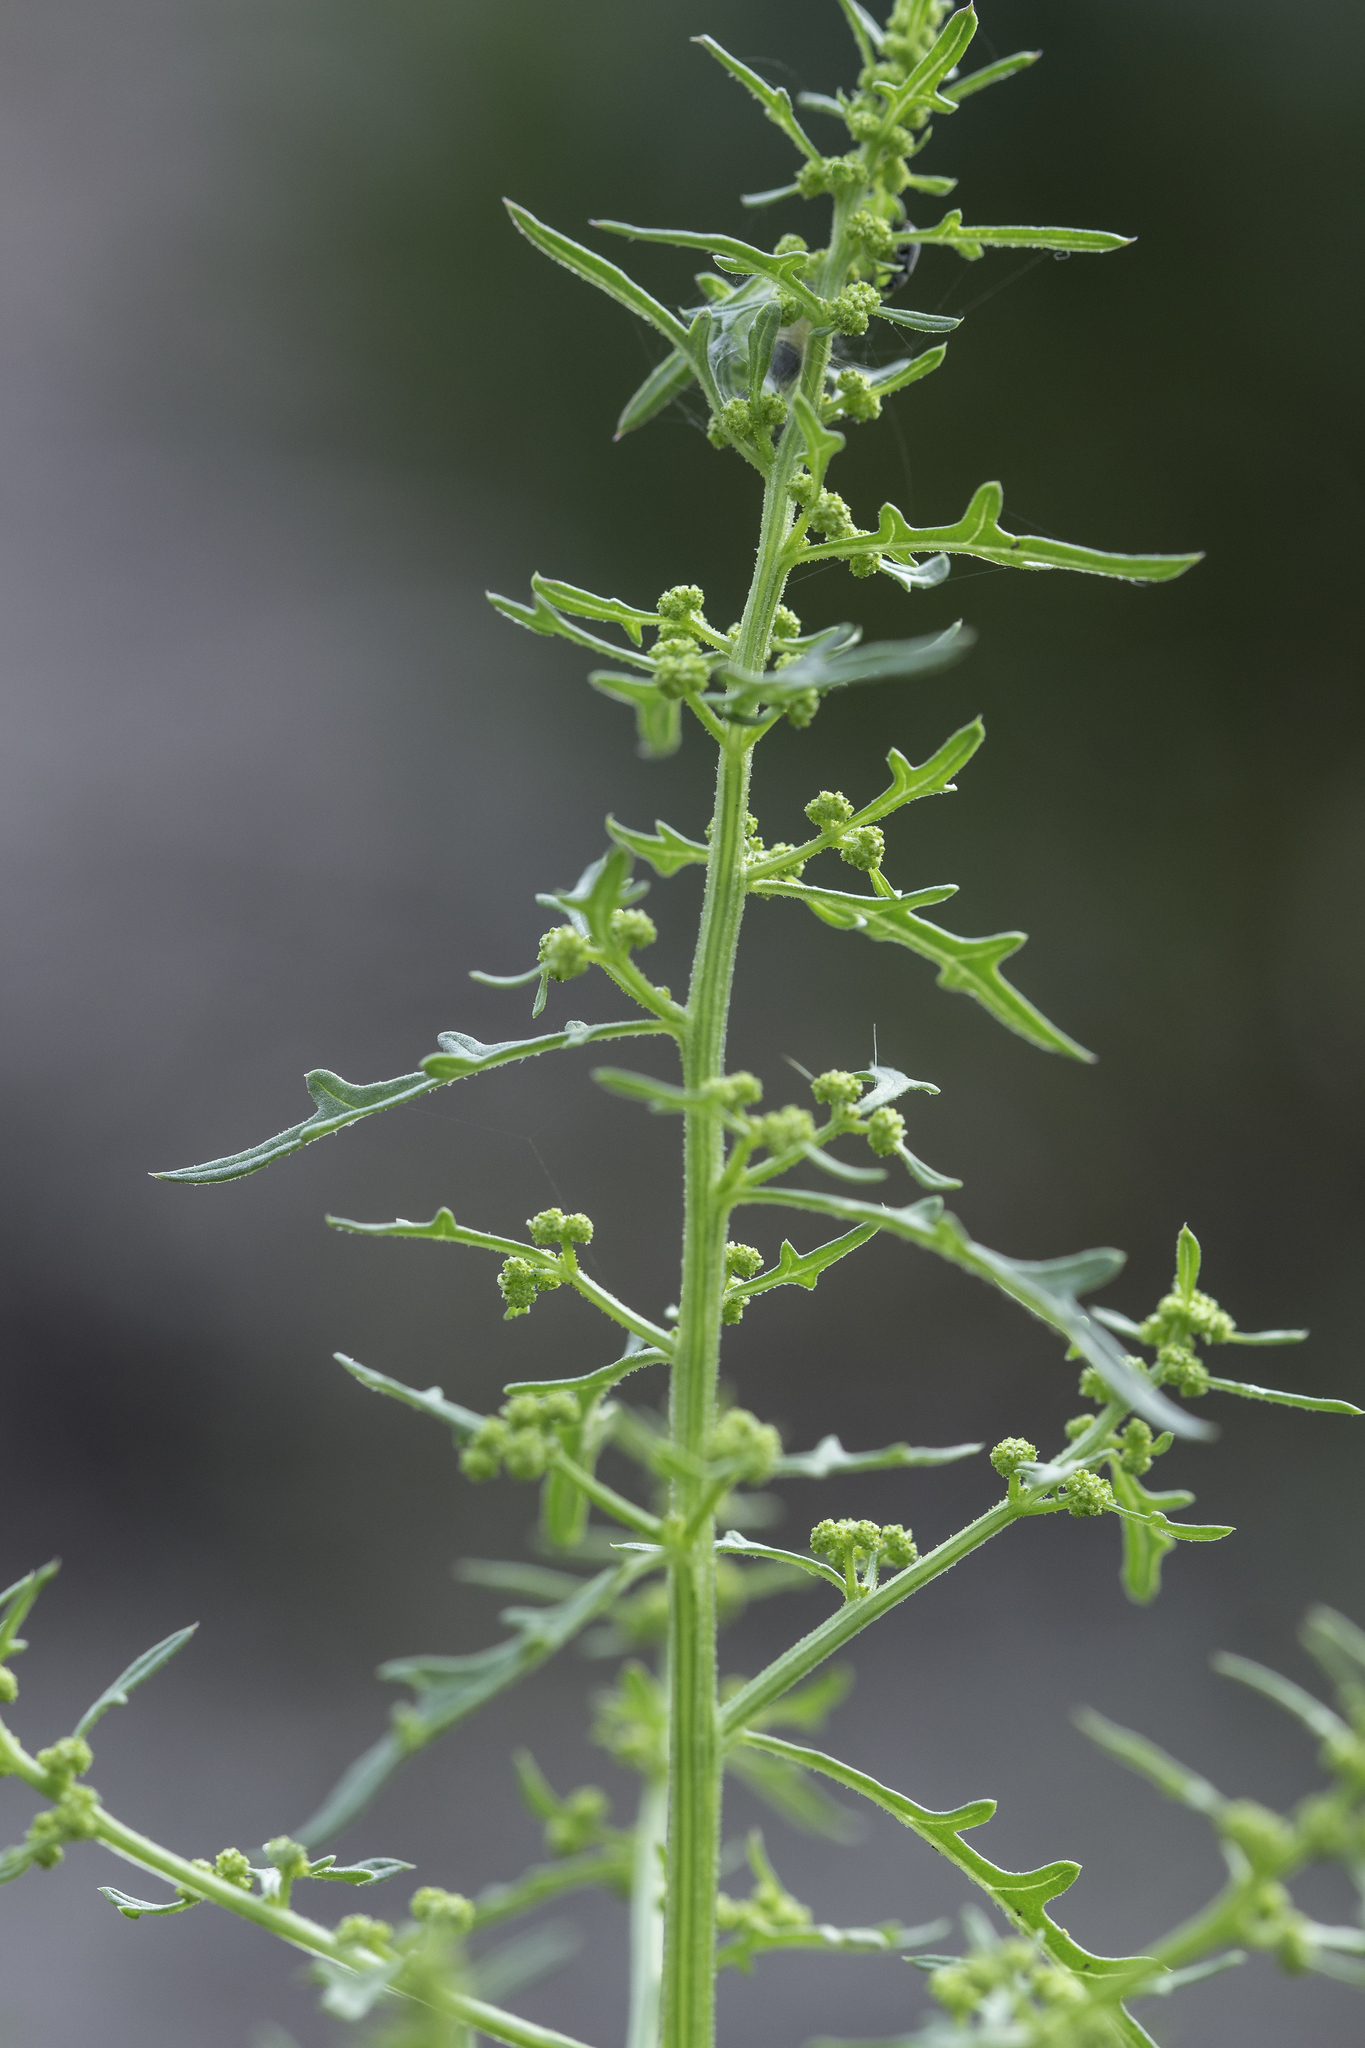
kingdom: Plantae
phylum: Tracheophyta
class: Magnoliopsida
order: Caryophyllales
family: Amaranthaceae
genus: Dysphania
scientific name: Dysphania incisa
